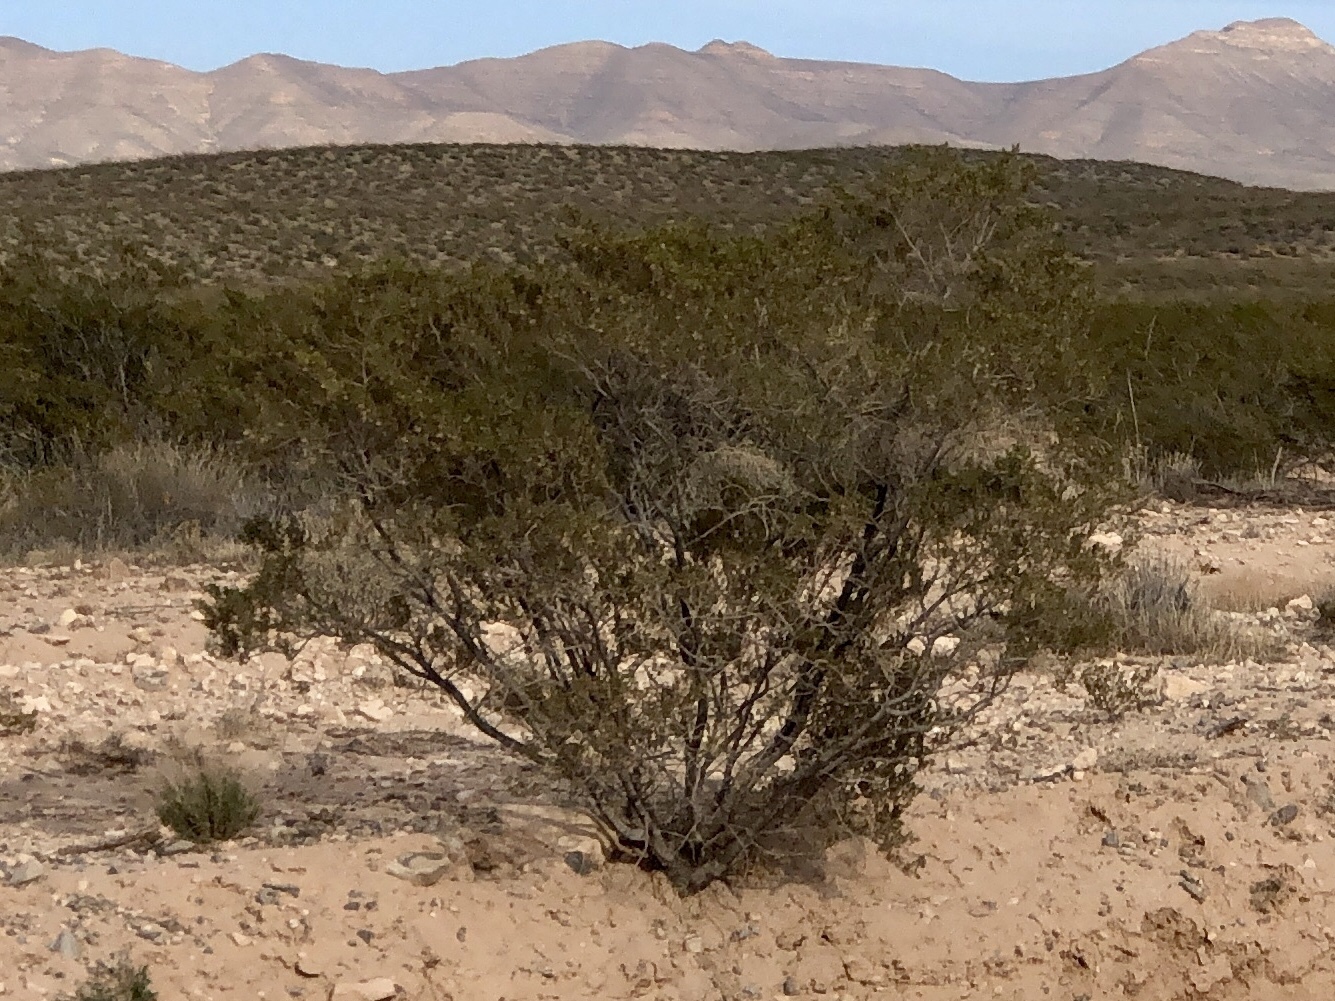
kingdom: Plantae
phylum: Tracheophyta
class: Magnoliopsida
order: Zygophyllales
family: Zygophyllaceae
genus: Larrea
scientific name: Larrea tridentata
